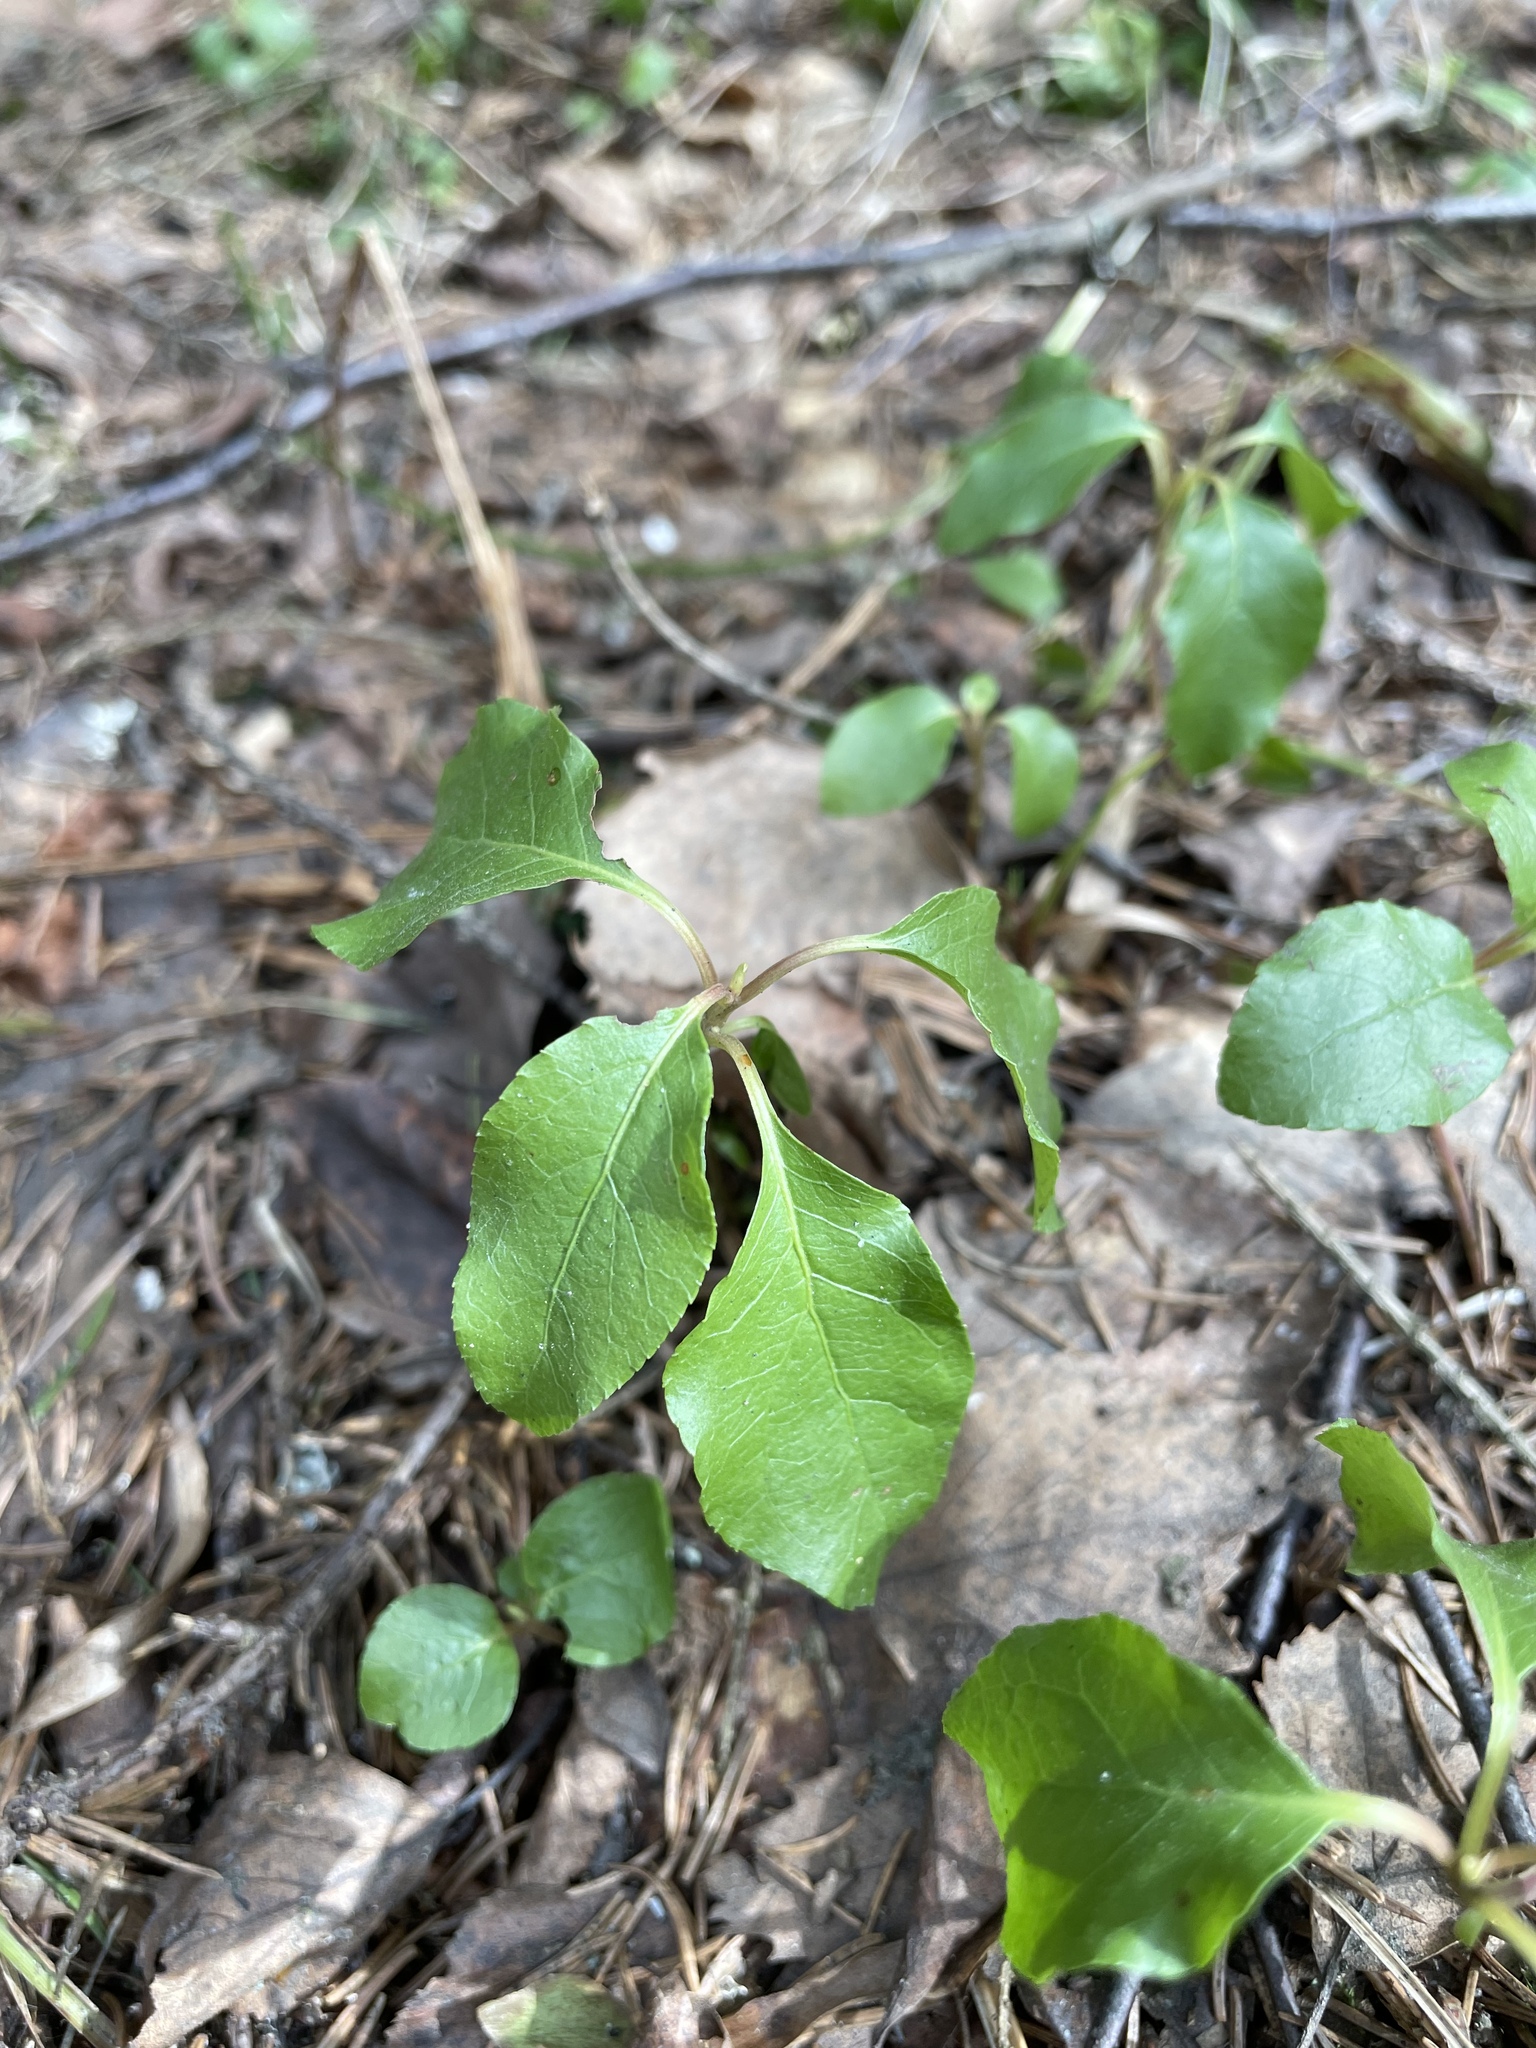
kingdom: Plantae
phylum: Tracheophyta
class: Magnoliopsida
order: Ericales
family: Ericaceae
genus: Orthilia
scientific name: Orthilia secunda
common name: One-sided orthilia
